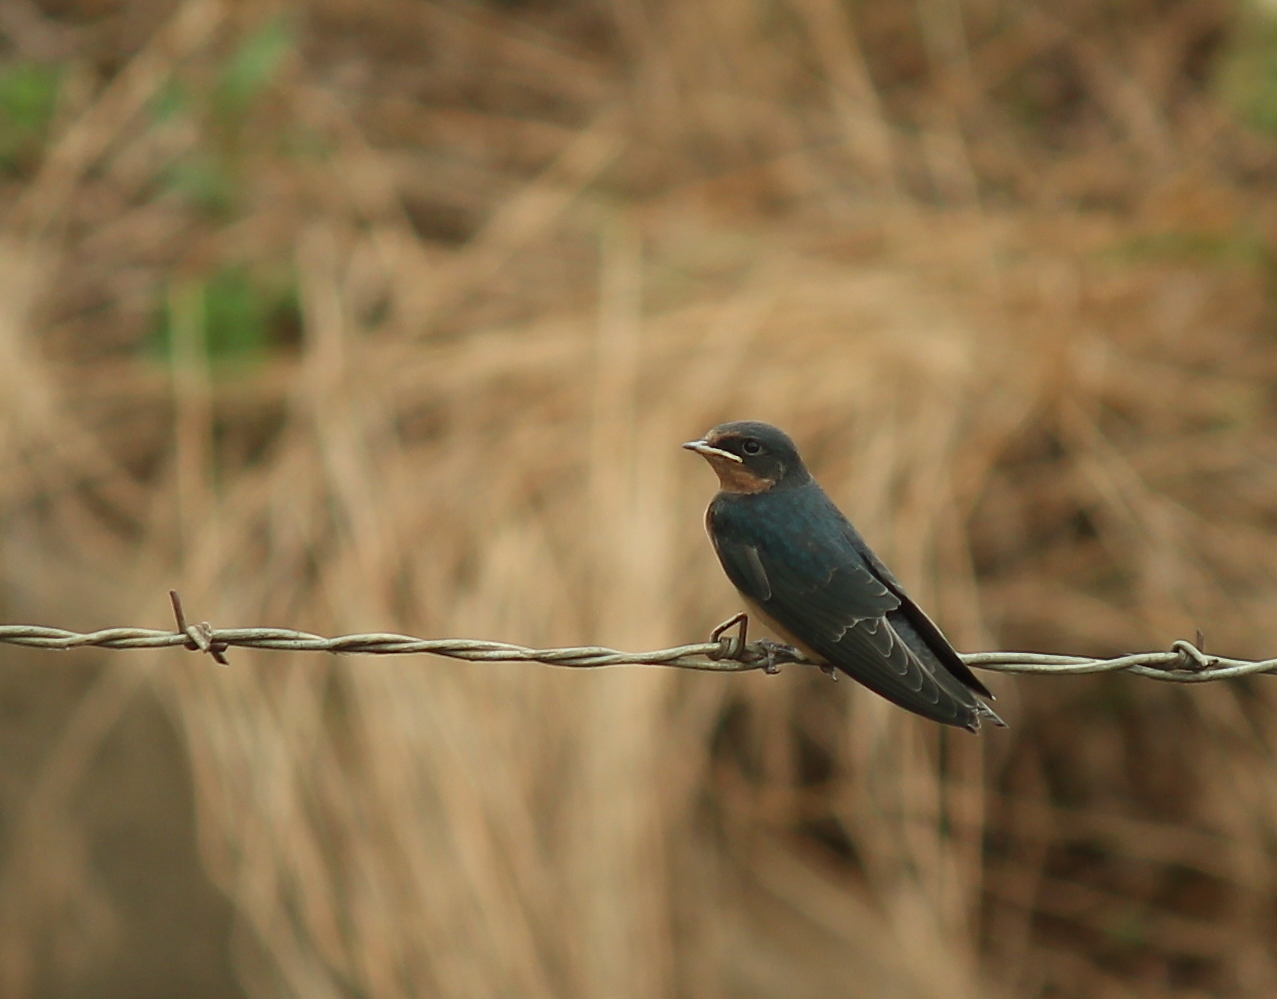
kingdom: Animalia
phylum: Chordata
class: Aves
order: Passeriformes
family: Hirundinidae
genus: Hirundo
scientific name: Hirundo rustica
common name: Barn swallow
